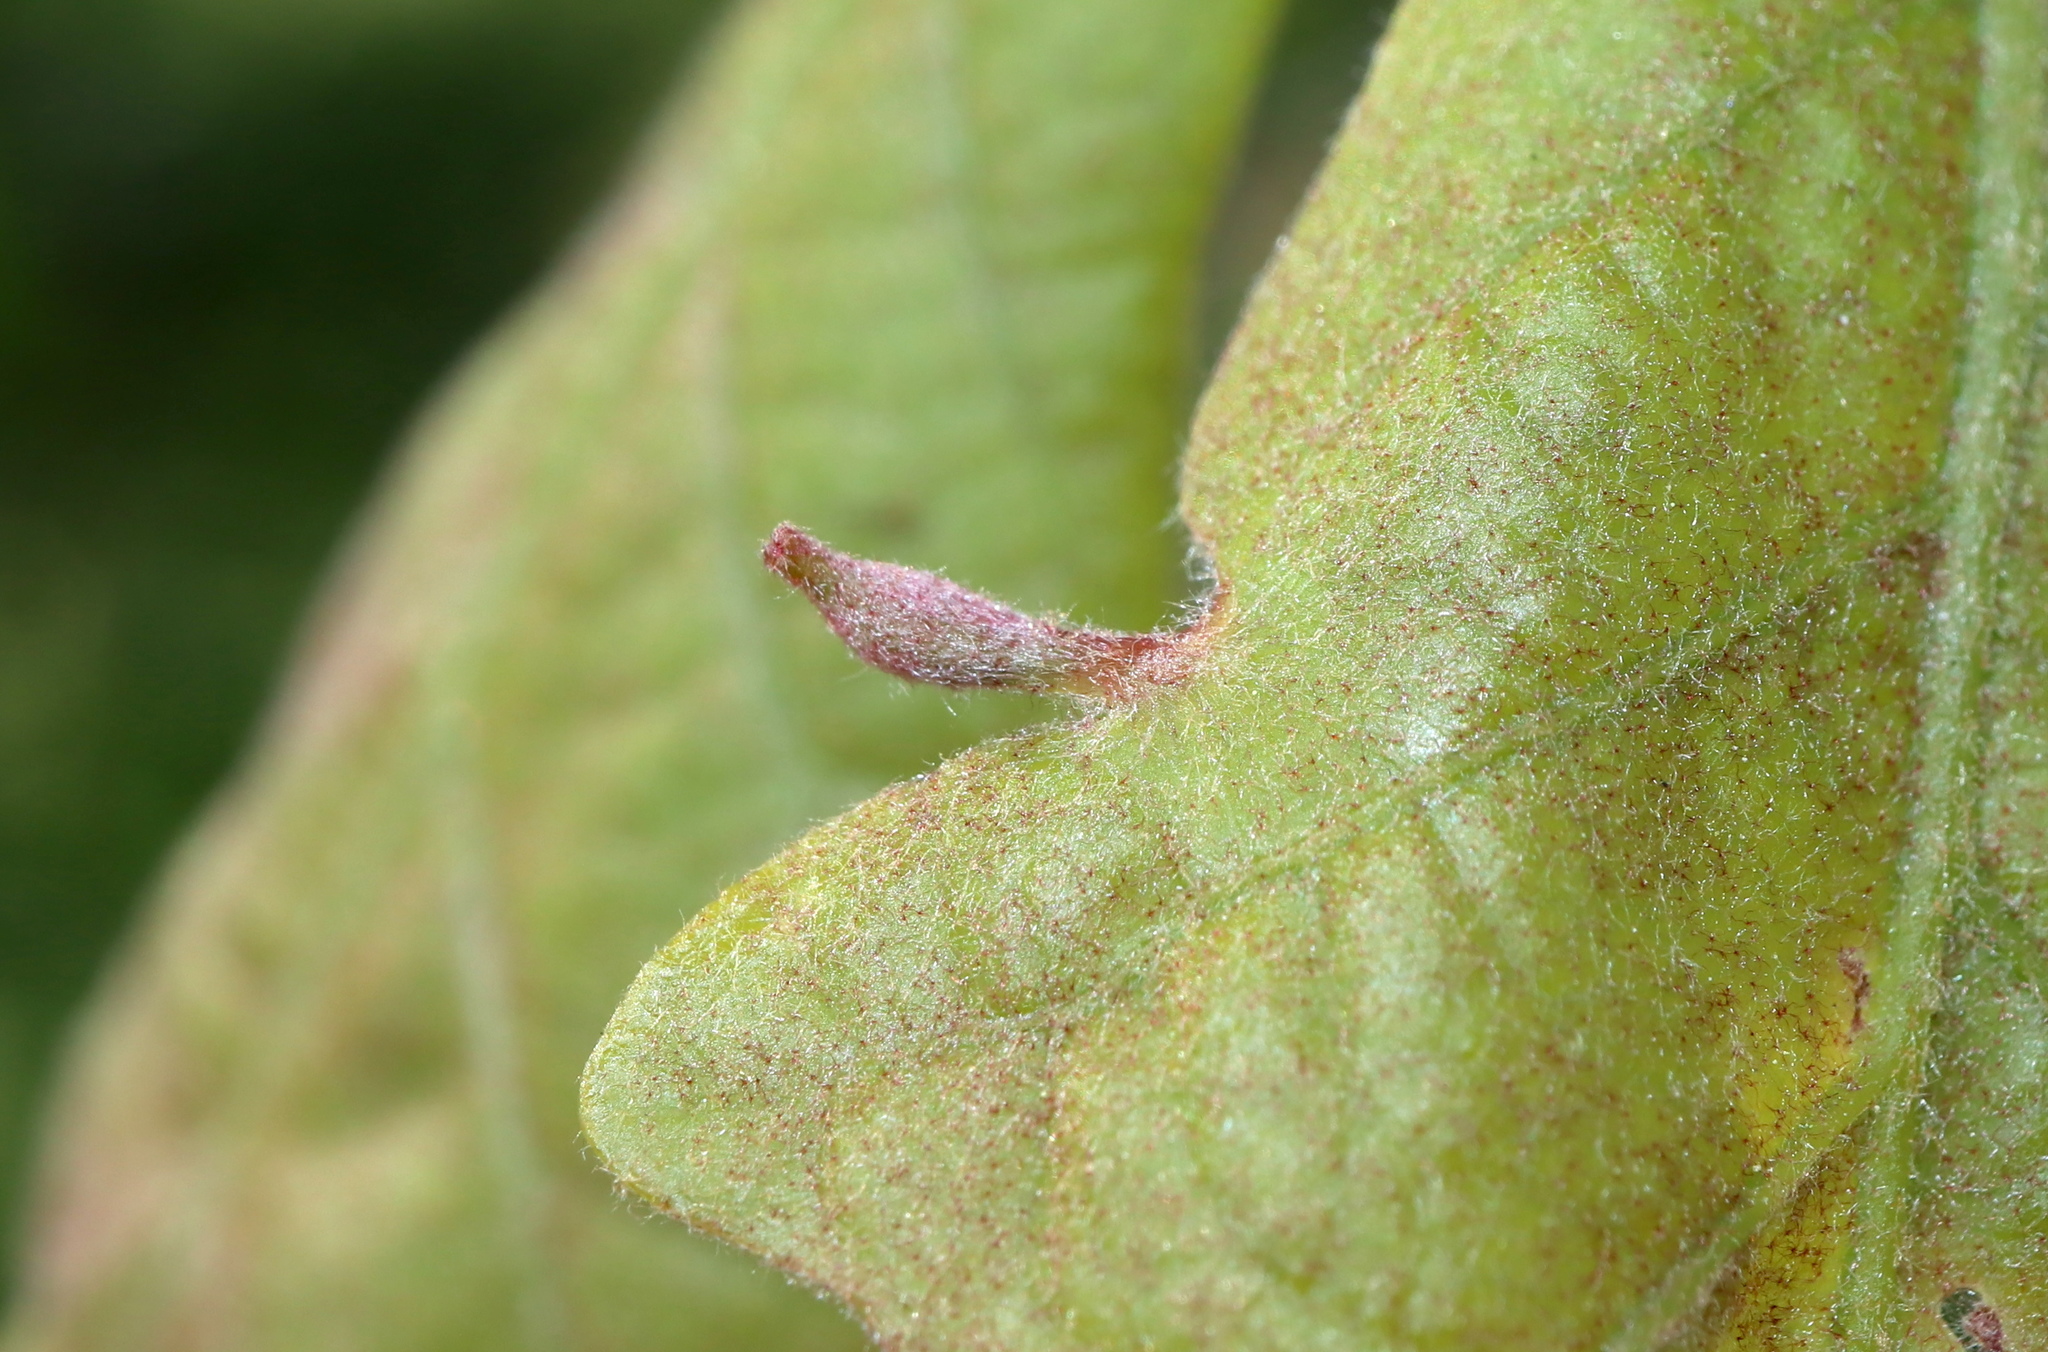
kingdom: Animalia
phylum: Arthropoda
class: Insecta
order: Hymenoptera
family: Cynipidae
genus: Andricus
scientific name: Andricus
